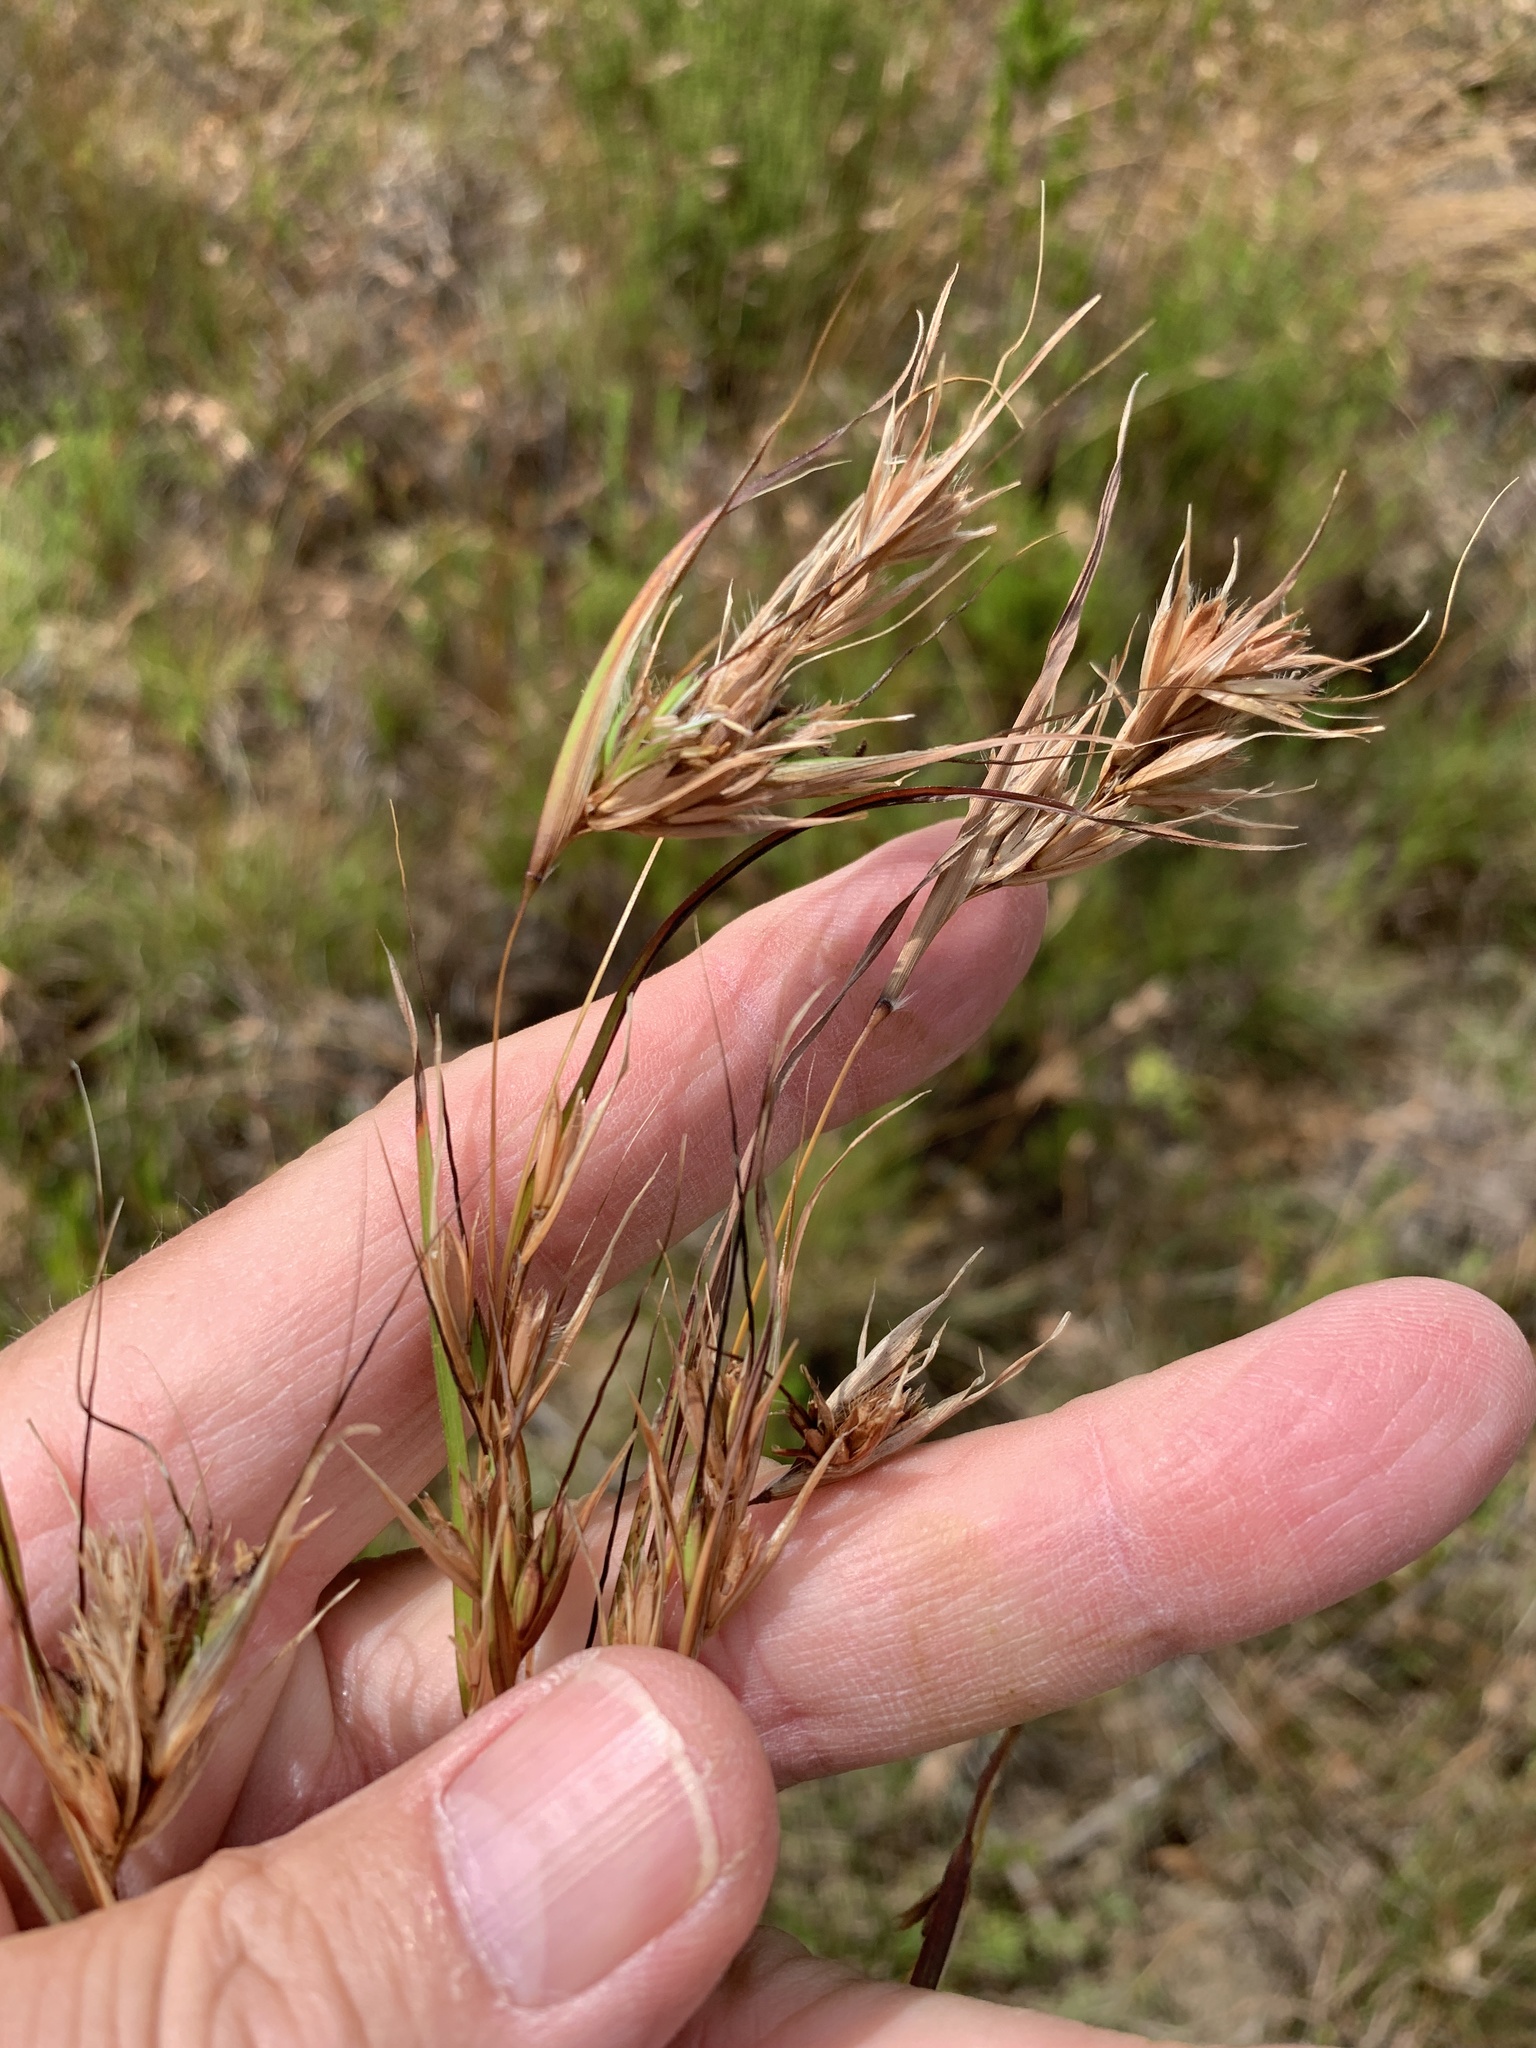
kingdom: Plantae
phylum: Tracheophyta
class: Liliopsida
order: Poales
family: Poaceae
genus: Themeda
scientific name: Themeda triandra
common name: Kangaroo grass
